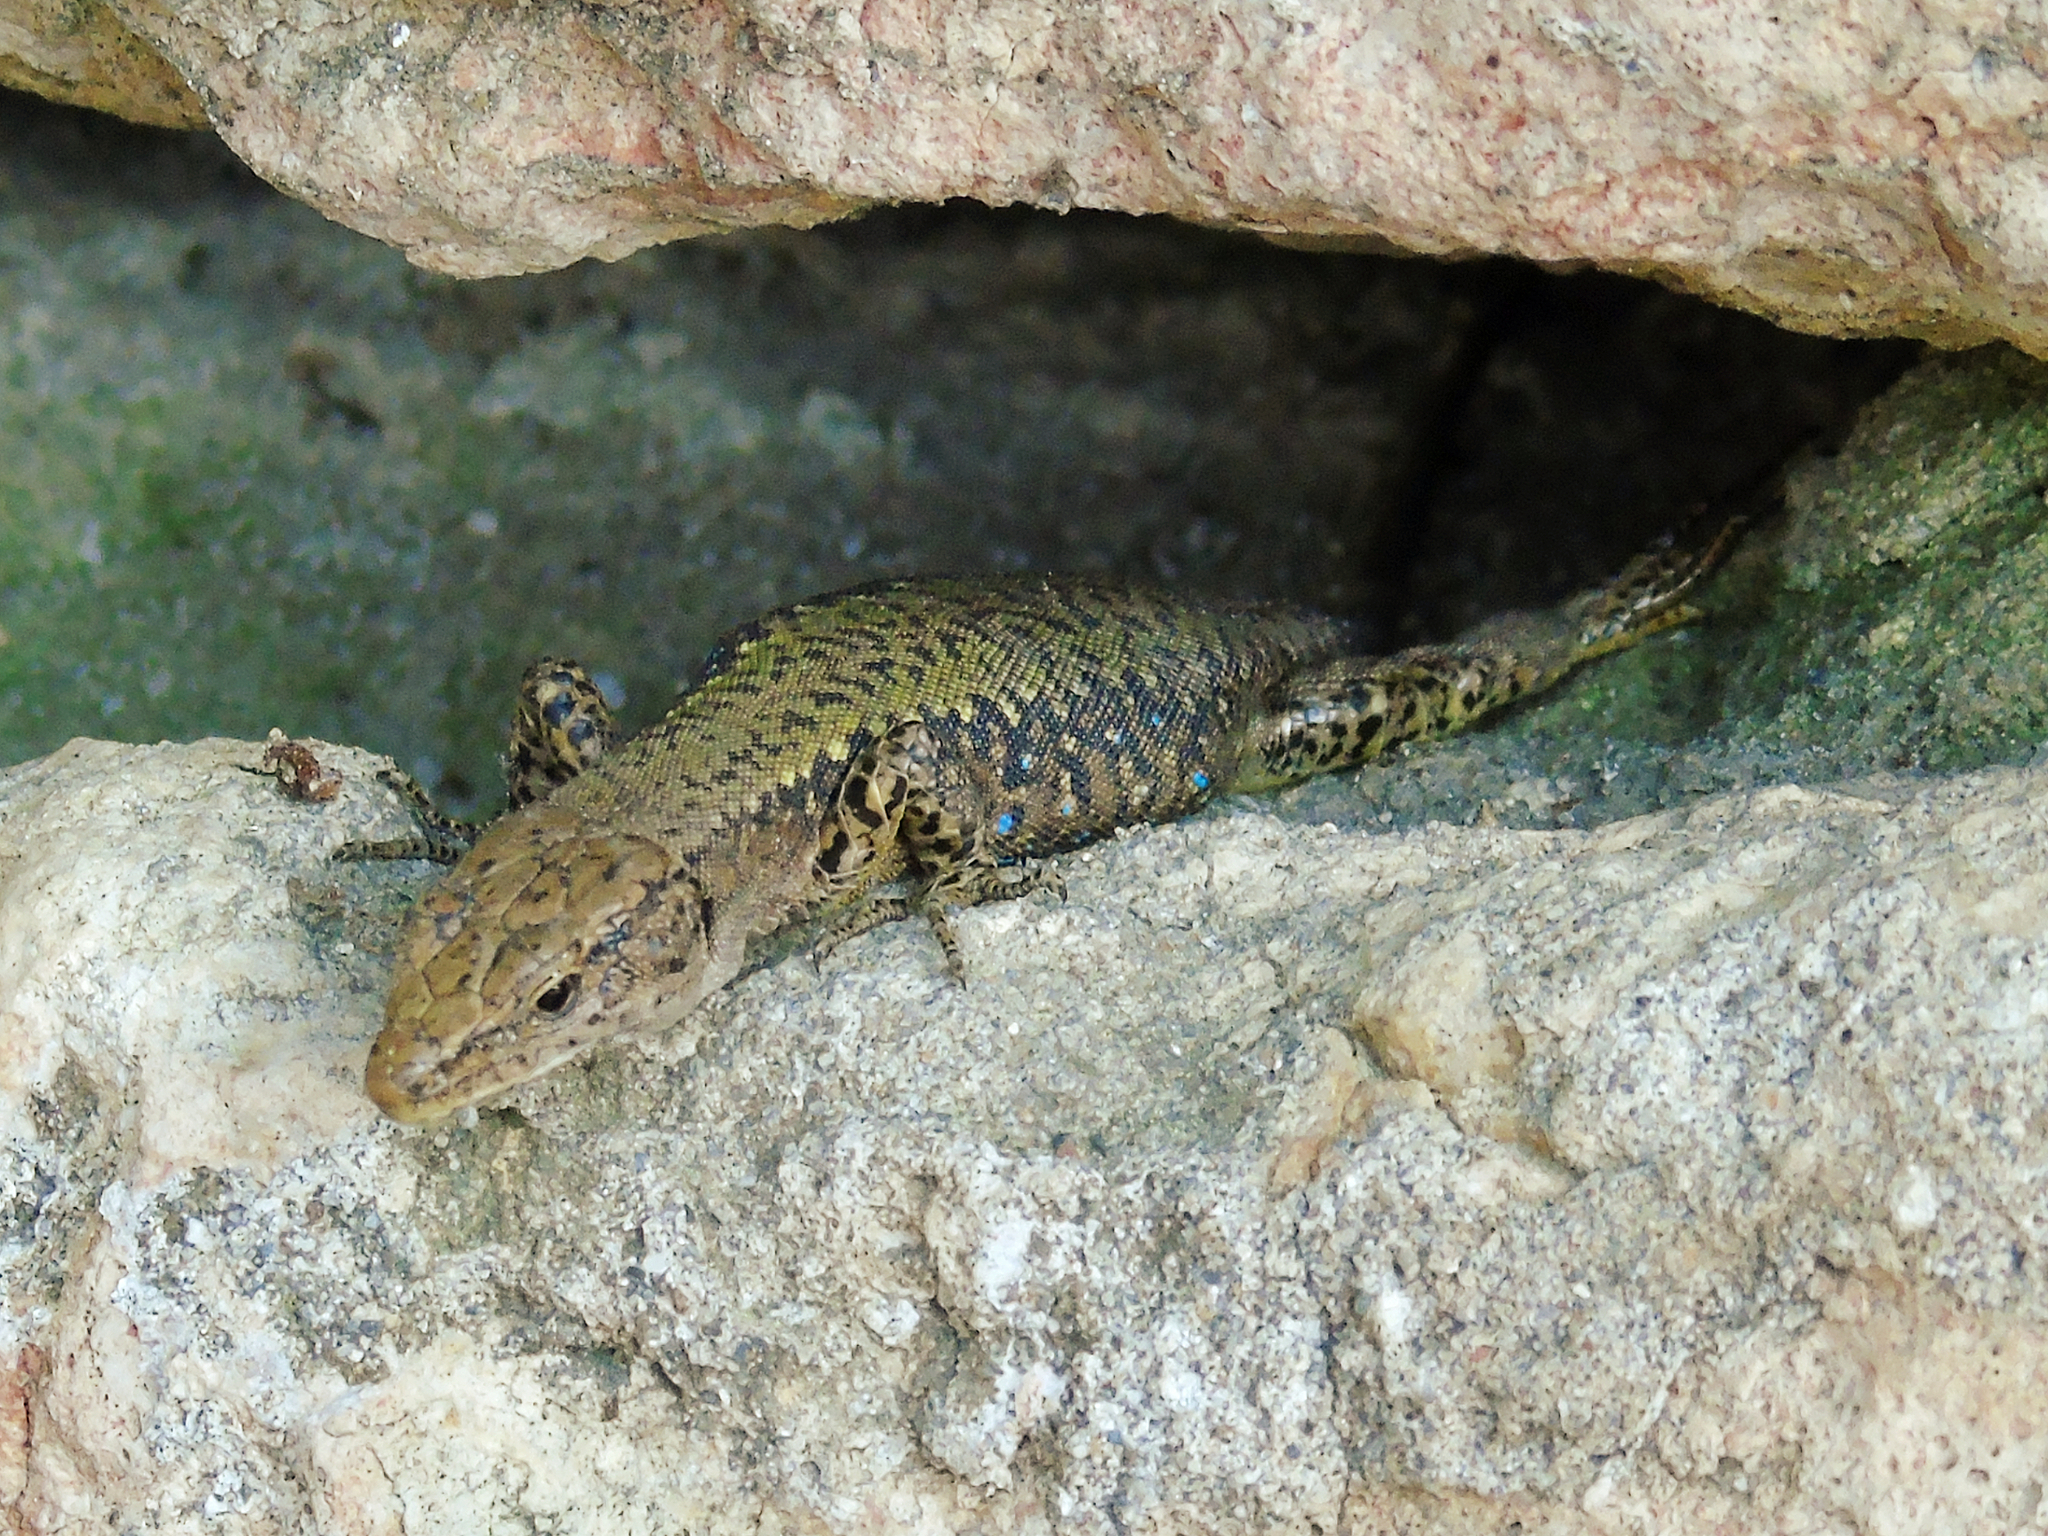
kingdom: Animalia
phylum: Chordata
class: Squamata
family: Lacertidae
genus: Darevskia
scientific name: Darevskia rudis
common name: Spiny-tailed lizard
